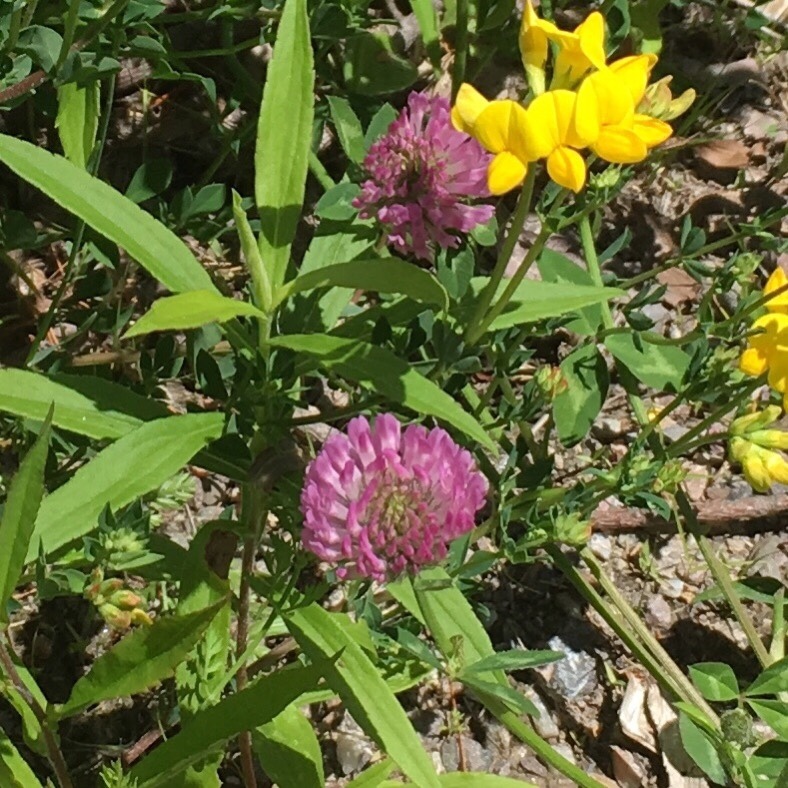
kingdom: Plantae
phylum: Tracheophyta
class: Magnoliopsida
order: Fabales
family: Fabaceae
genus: Trifolium
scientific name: Trifolium pratense
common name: Red clover
